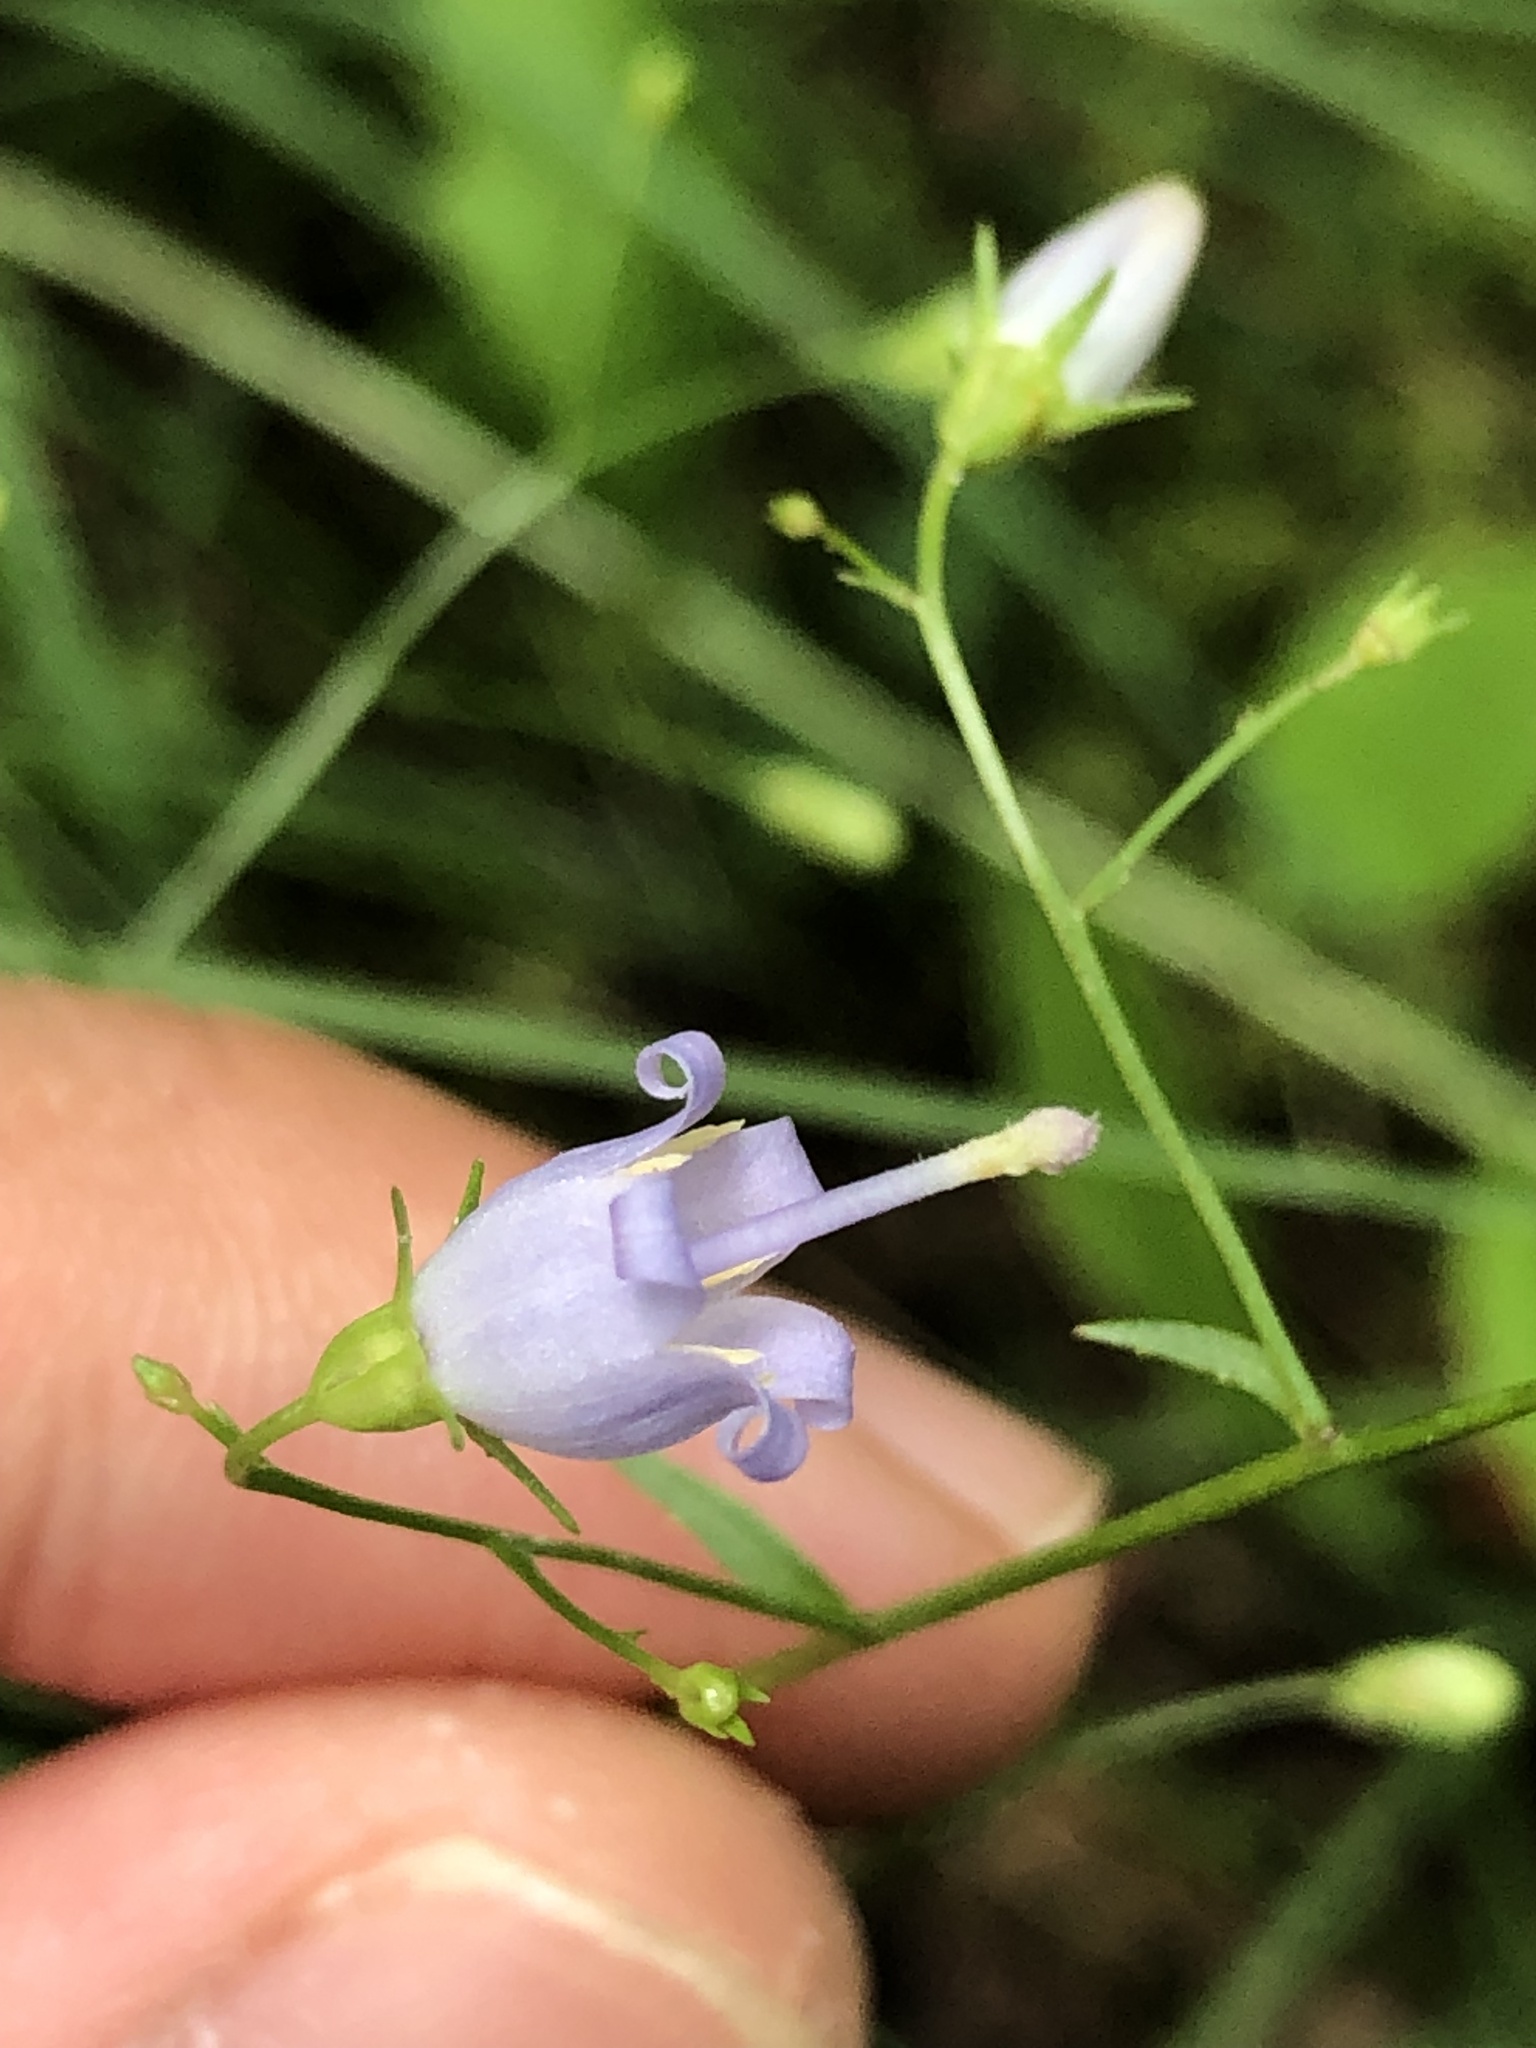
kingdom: Plantae
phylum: Tracheophyta
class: Magnoliopsida
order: Asterales
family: Campanulaceae
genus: Campanula
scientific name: Campanula divaricata
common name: Appalachian bellflower
